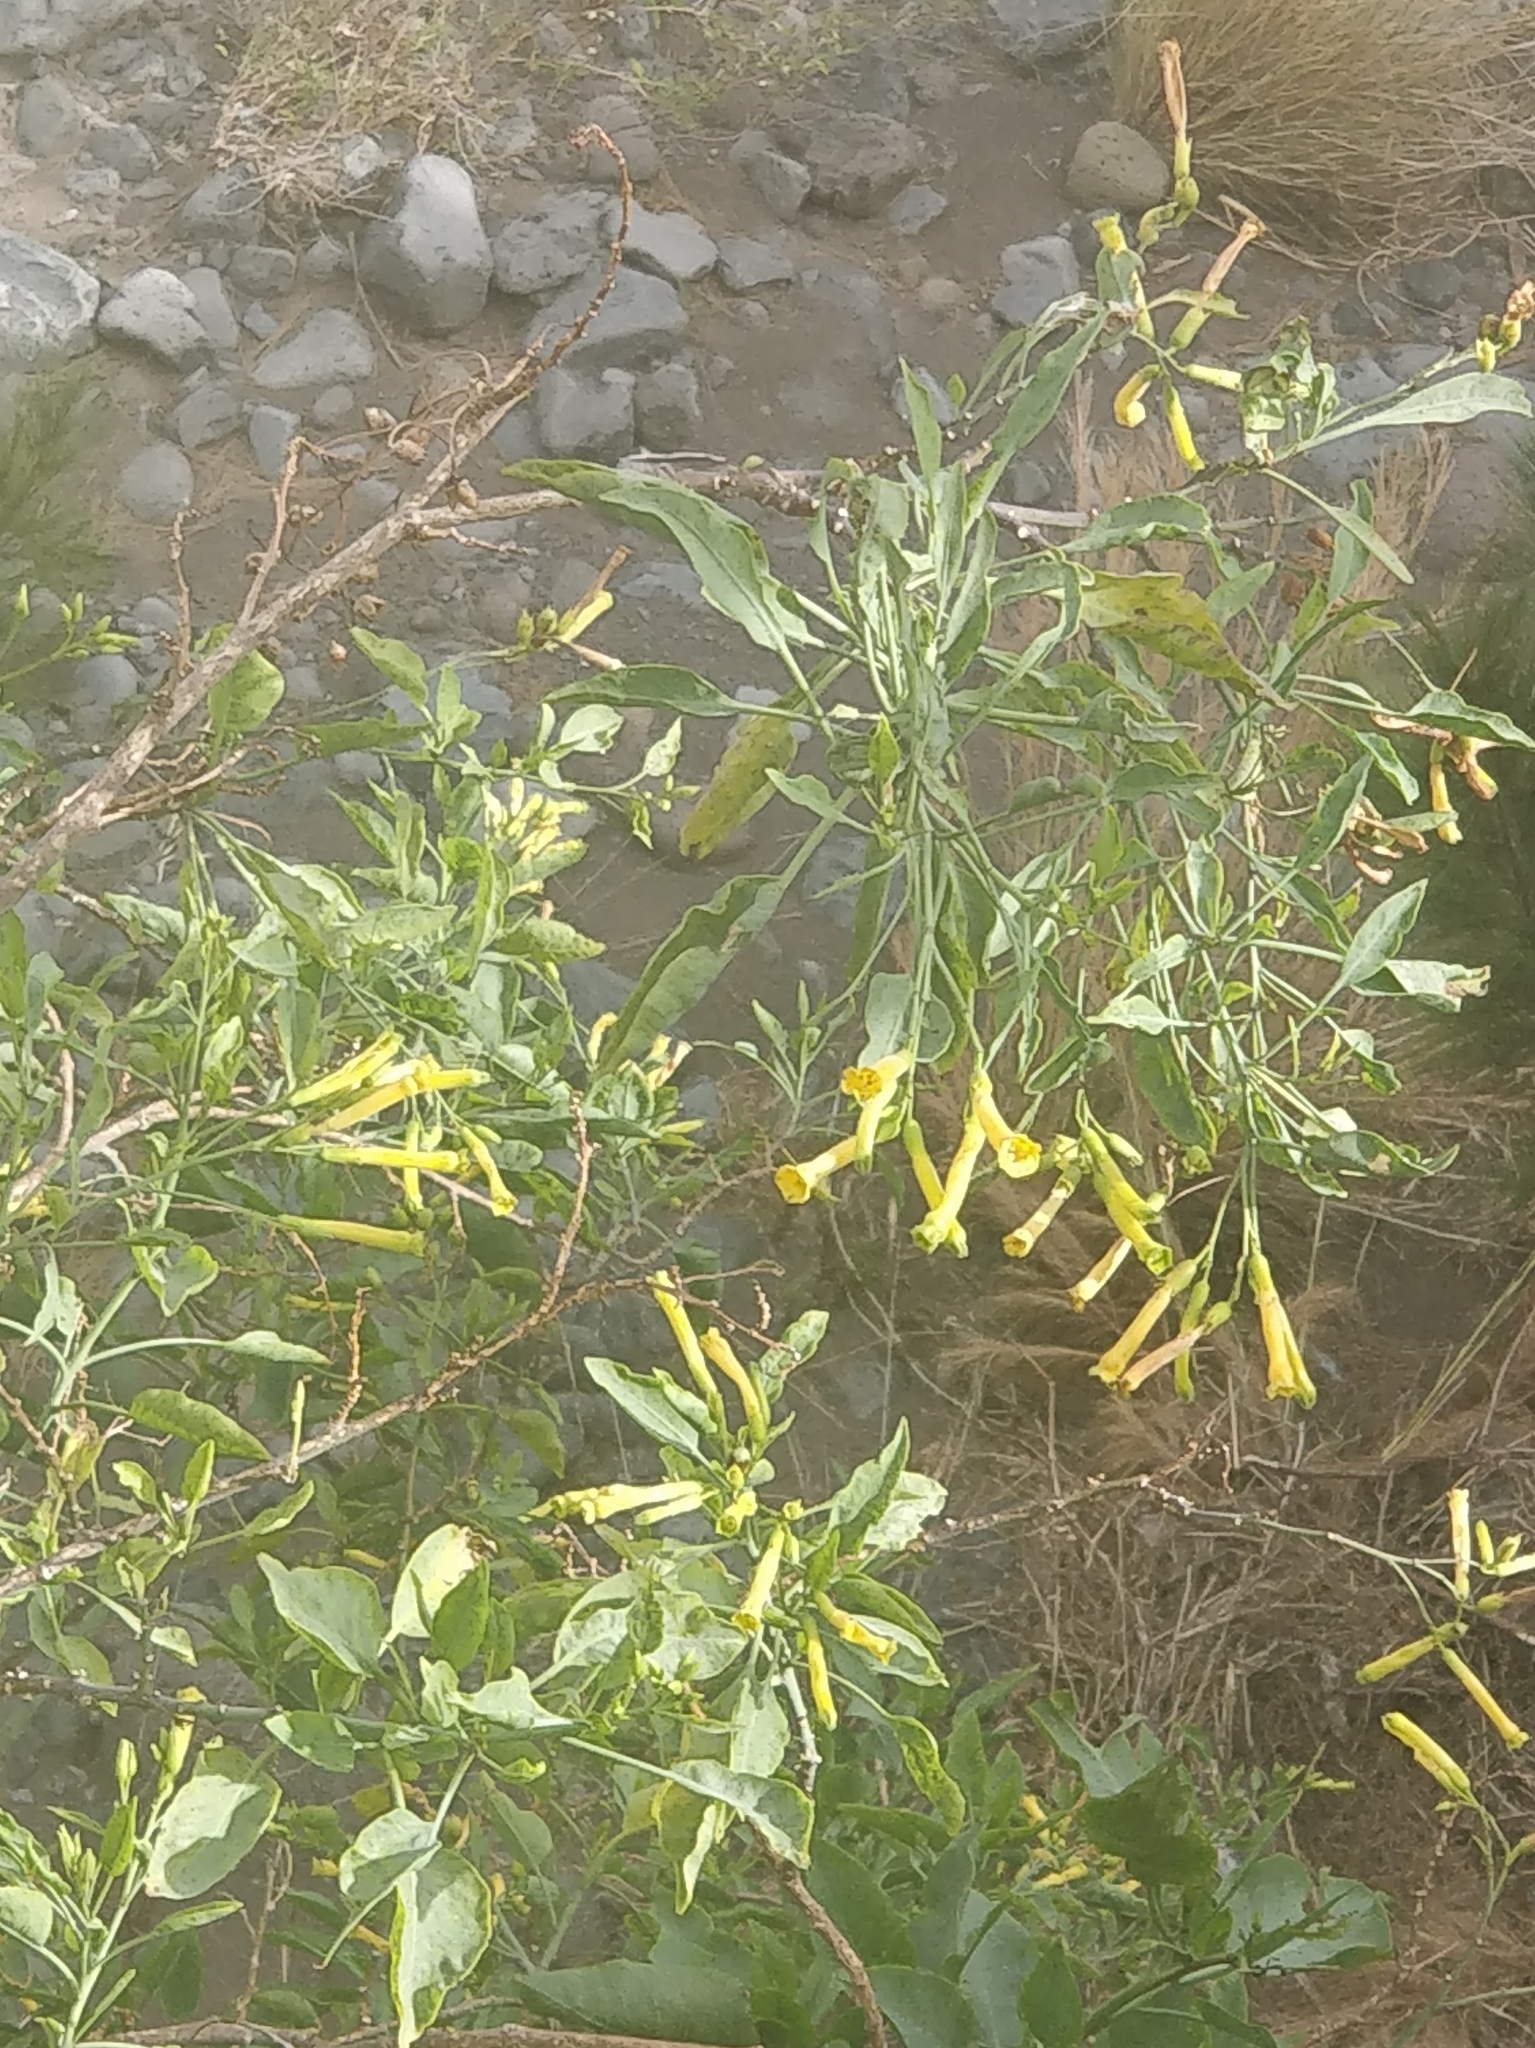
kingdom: Plantae
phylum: Tracheophyta
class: Magnoliopsida
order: Solanales
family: Solanaceae
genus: Nicotiana
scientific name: Nicotiana glauca
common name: Tree tobacco
